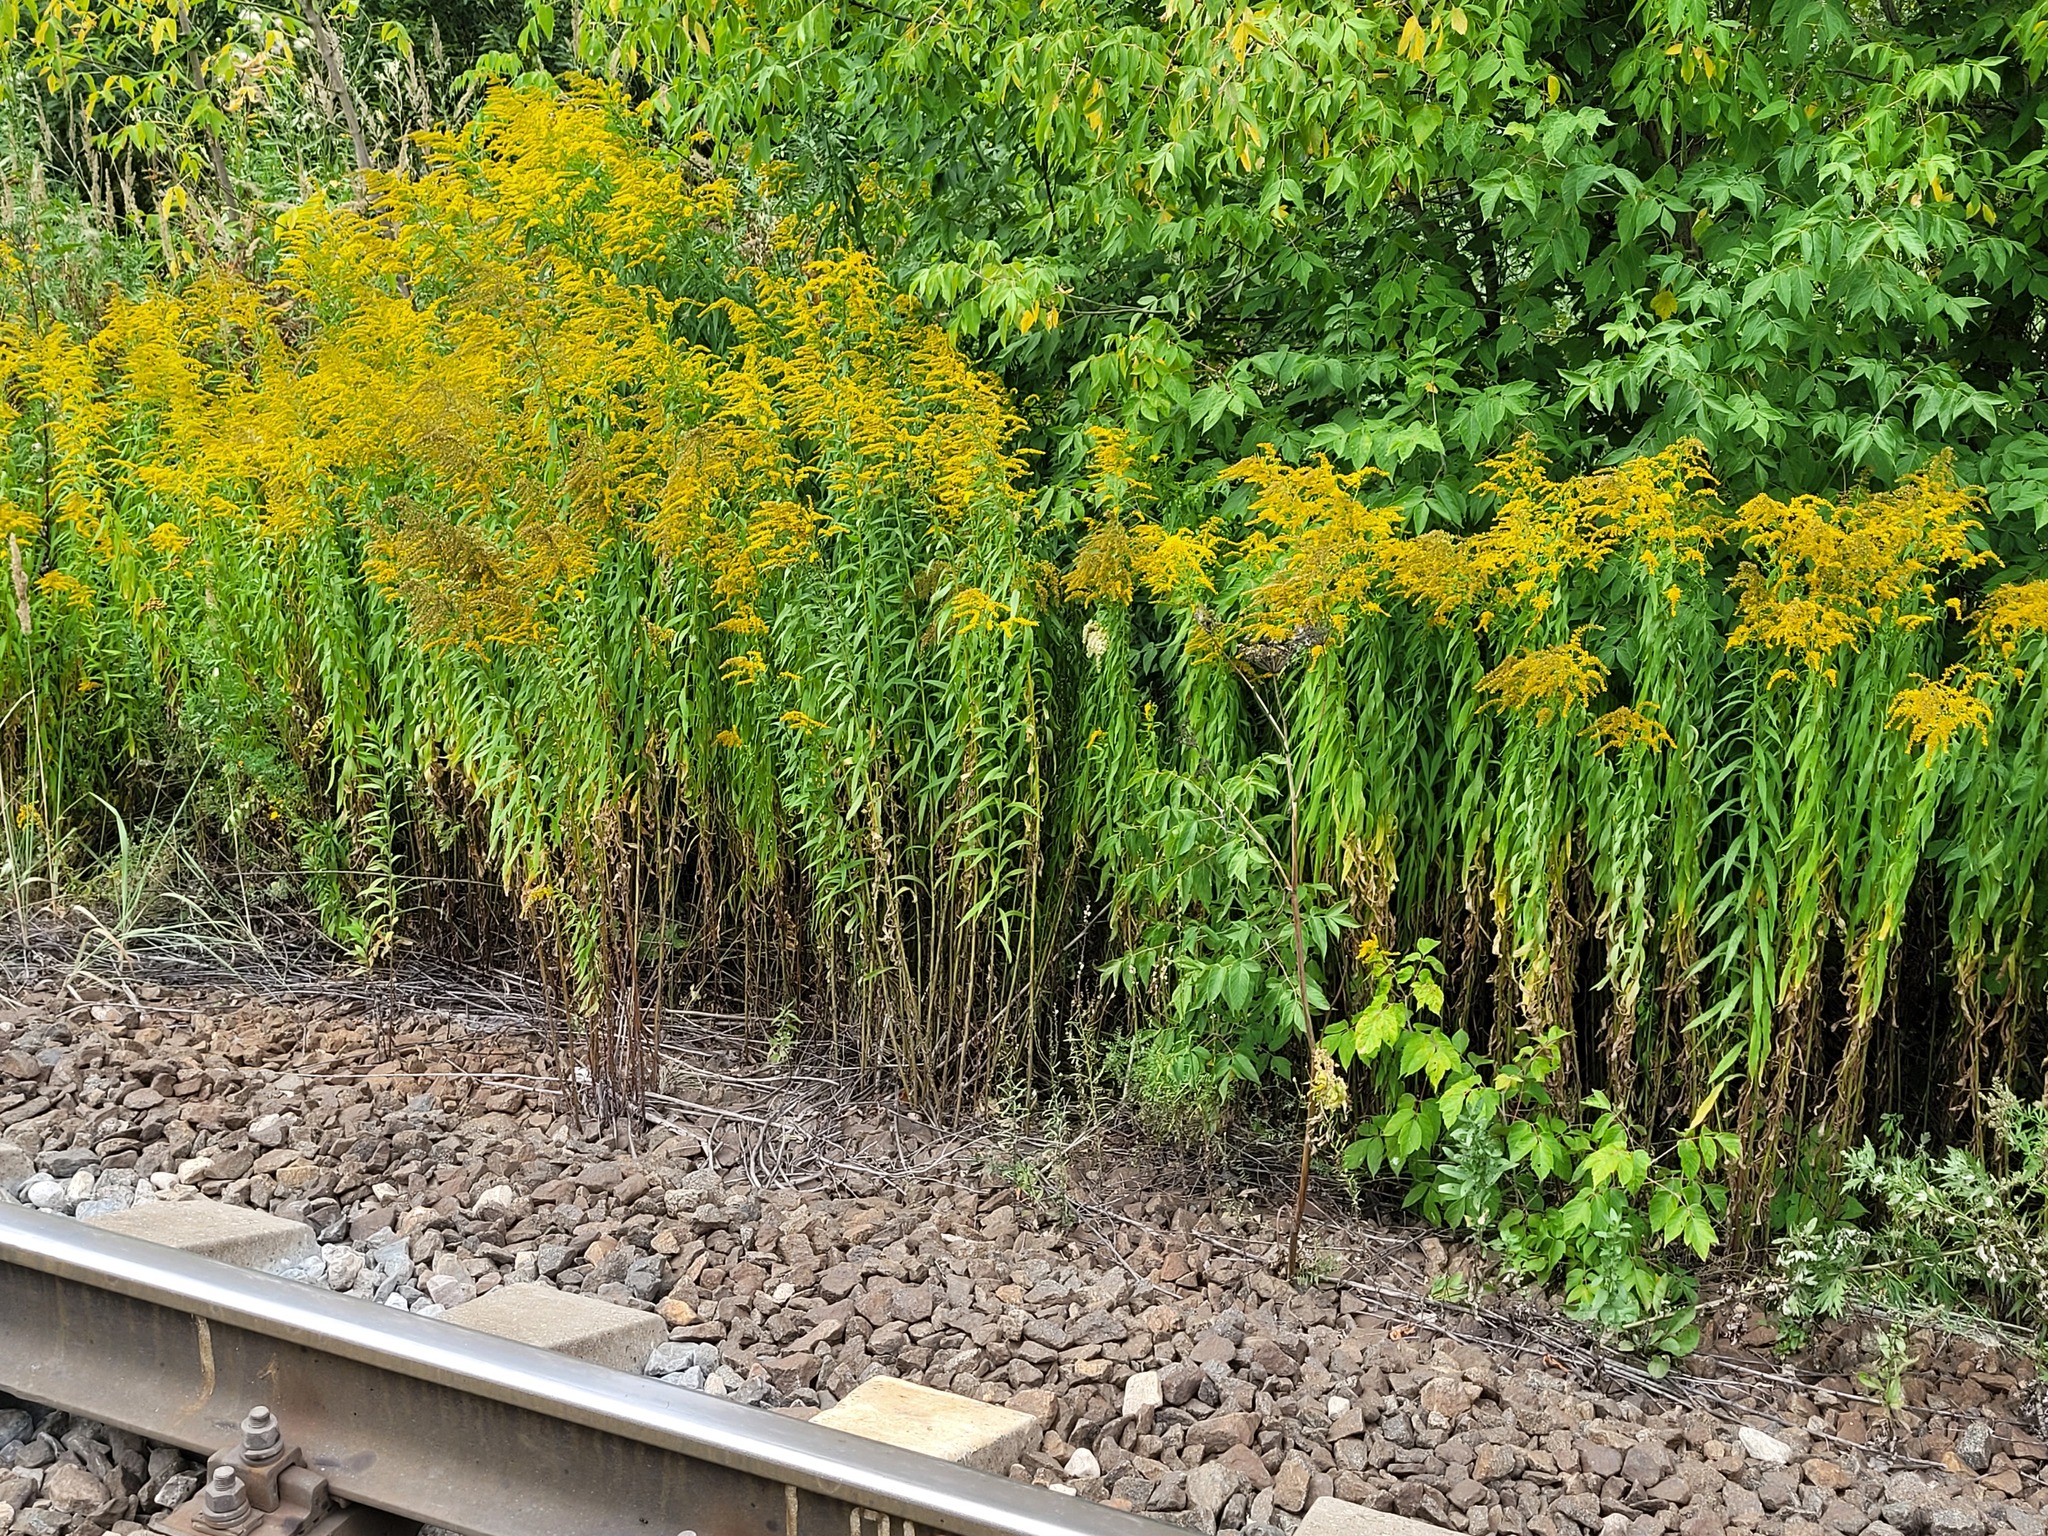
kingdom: Plantae
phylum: Tracheophyta
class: Magnoliopsida
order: Asterales
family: Asteraceae
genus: Solidago
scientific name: Solidago canadensis
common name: Canada goldenrod
